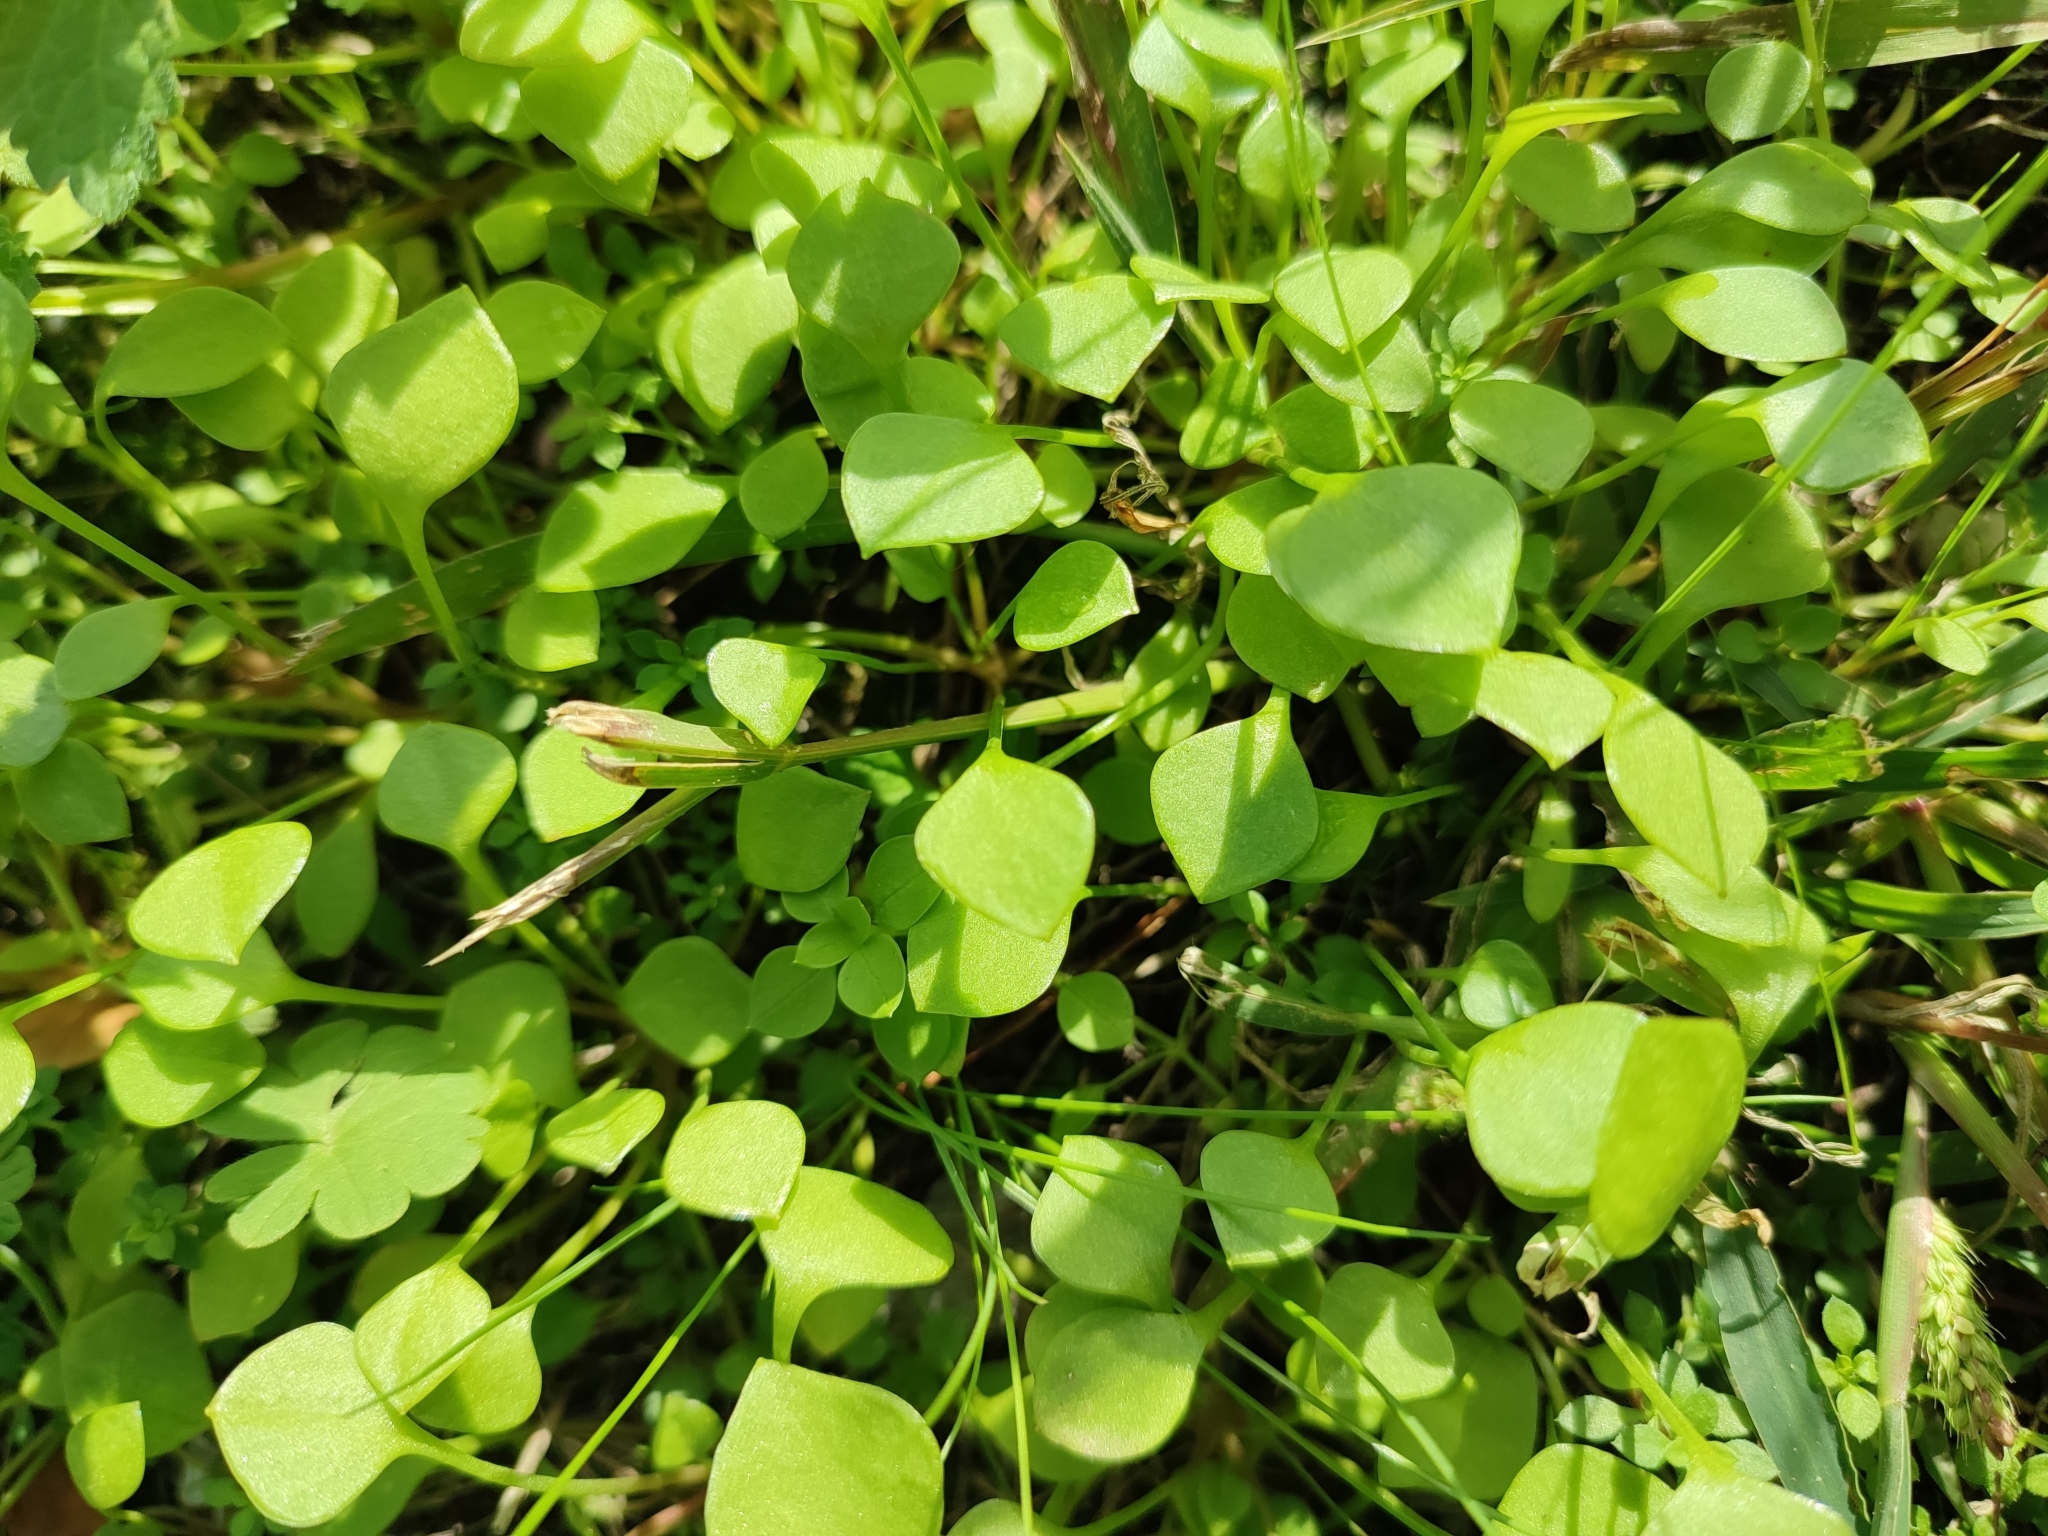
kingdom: Plantae
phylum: Tracheophyta
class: Magnoliopsida
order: Caryophyllales
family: Montiaceae
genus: Claytonia
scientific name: Claytonia perfoliata
